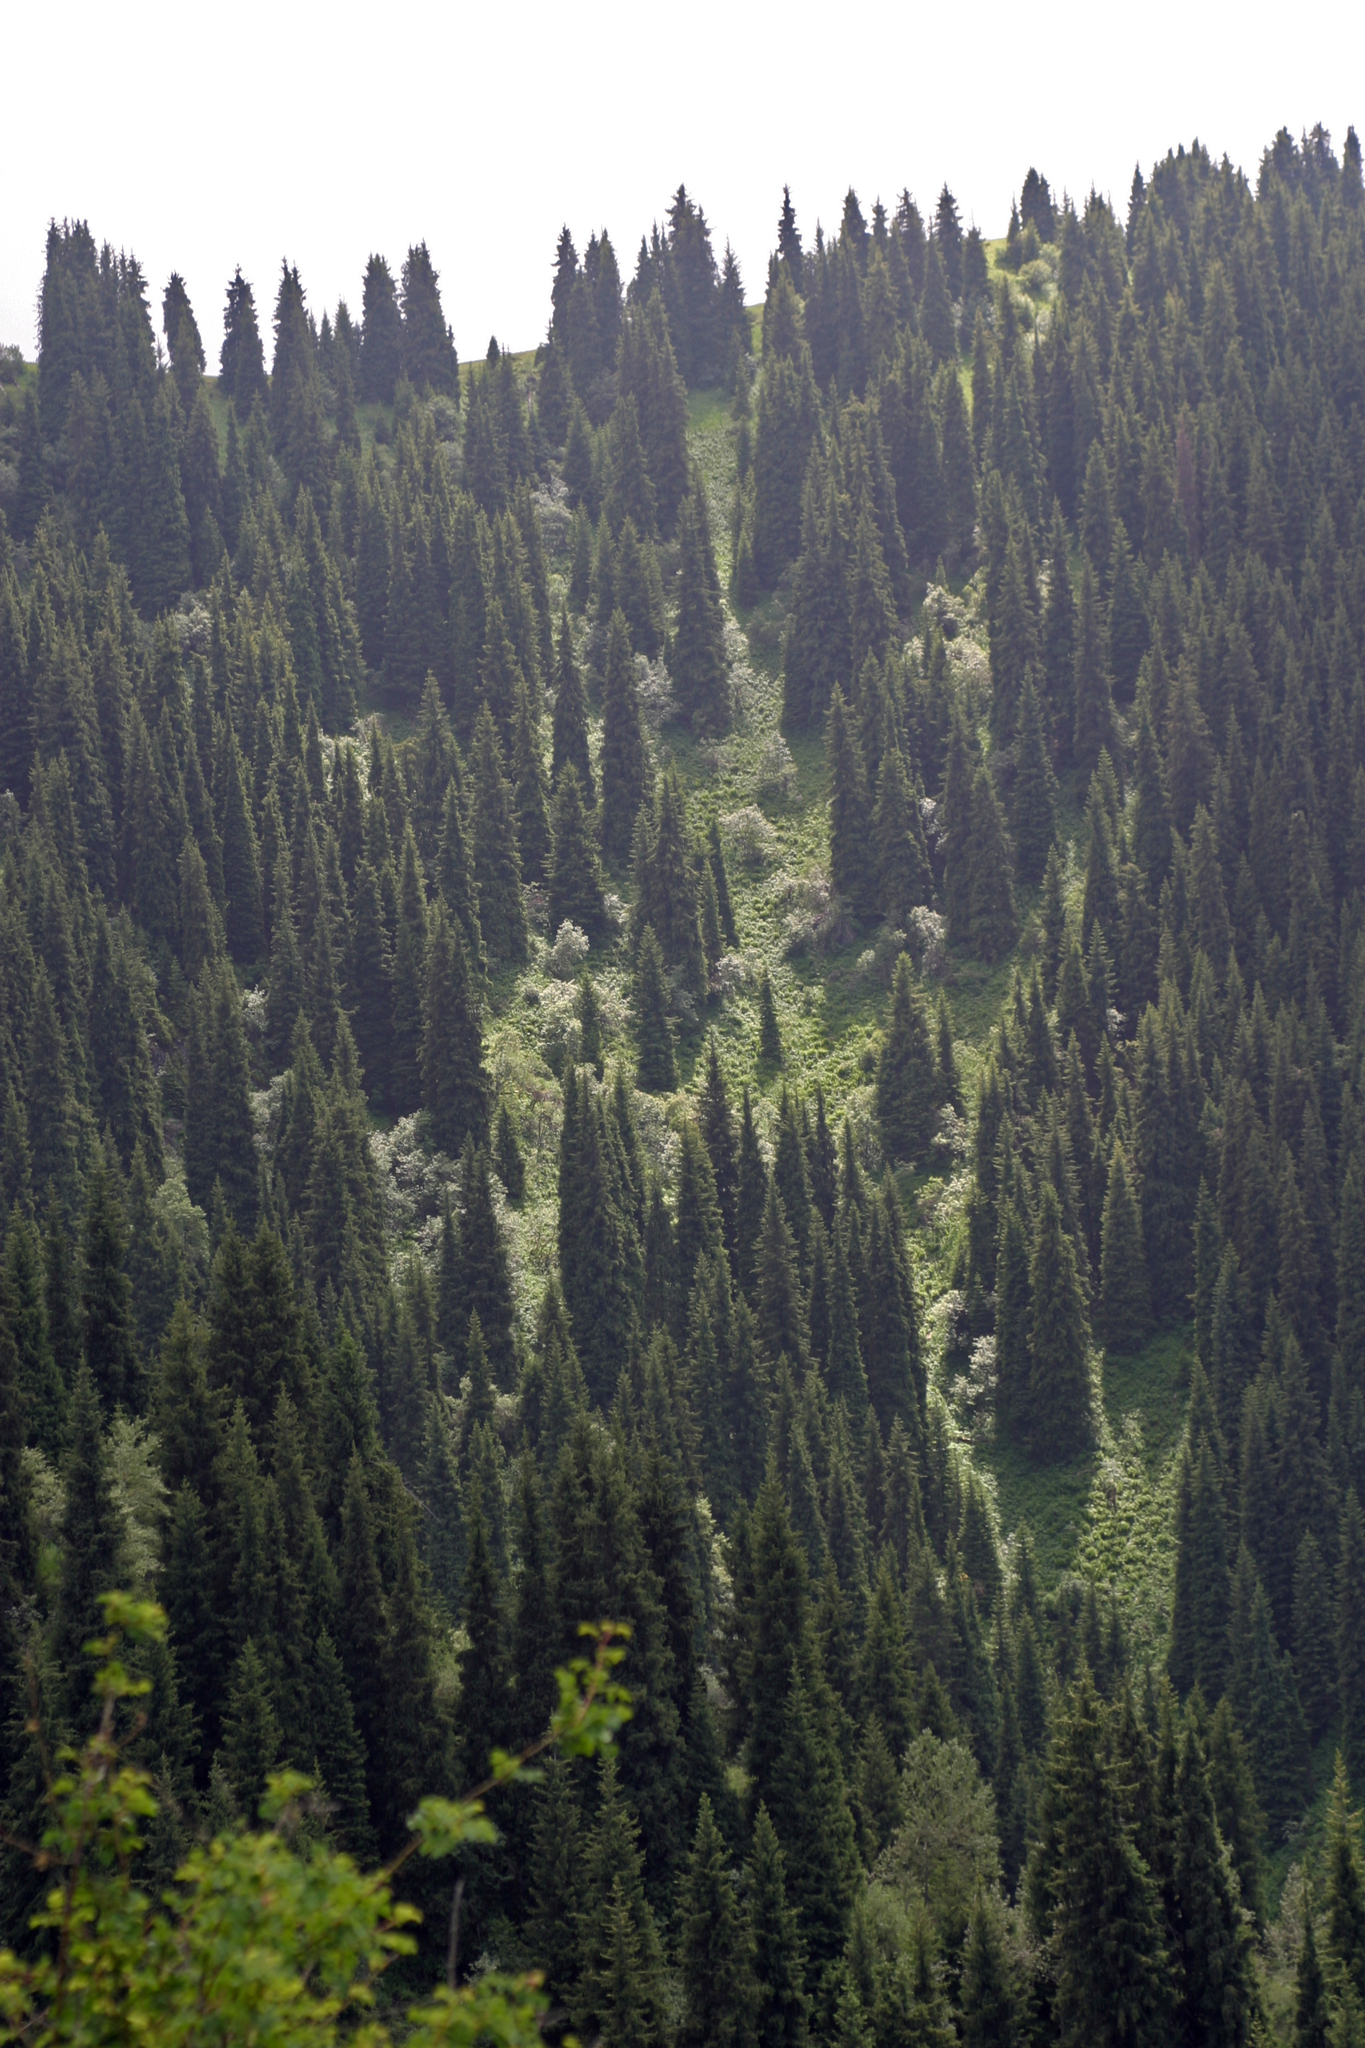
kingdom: Plantae
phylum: Tracheophyta
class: Pinopsida
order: Pinales
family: Pinaceae
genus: Picea
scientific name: Picea schrenkiana
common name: Asian spruce
